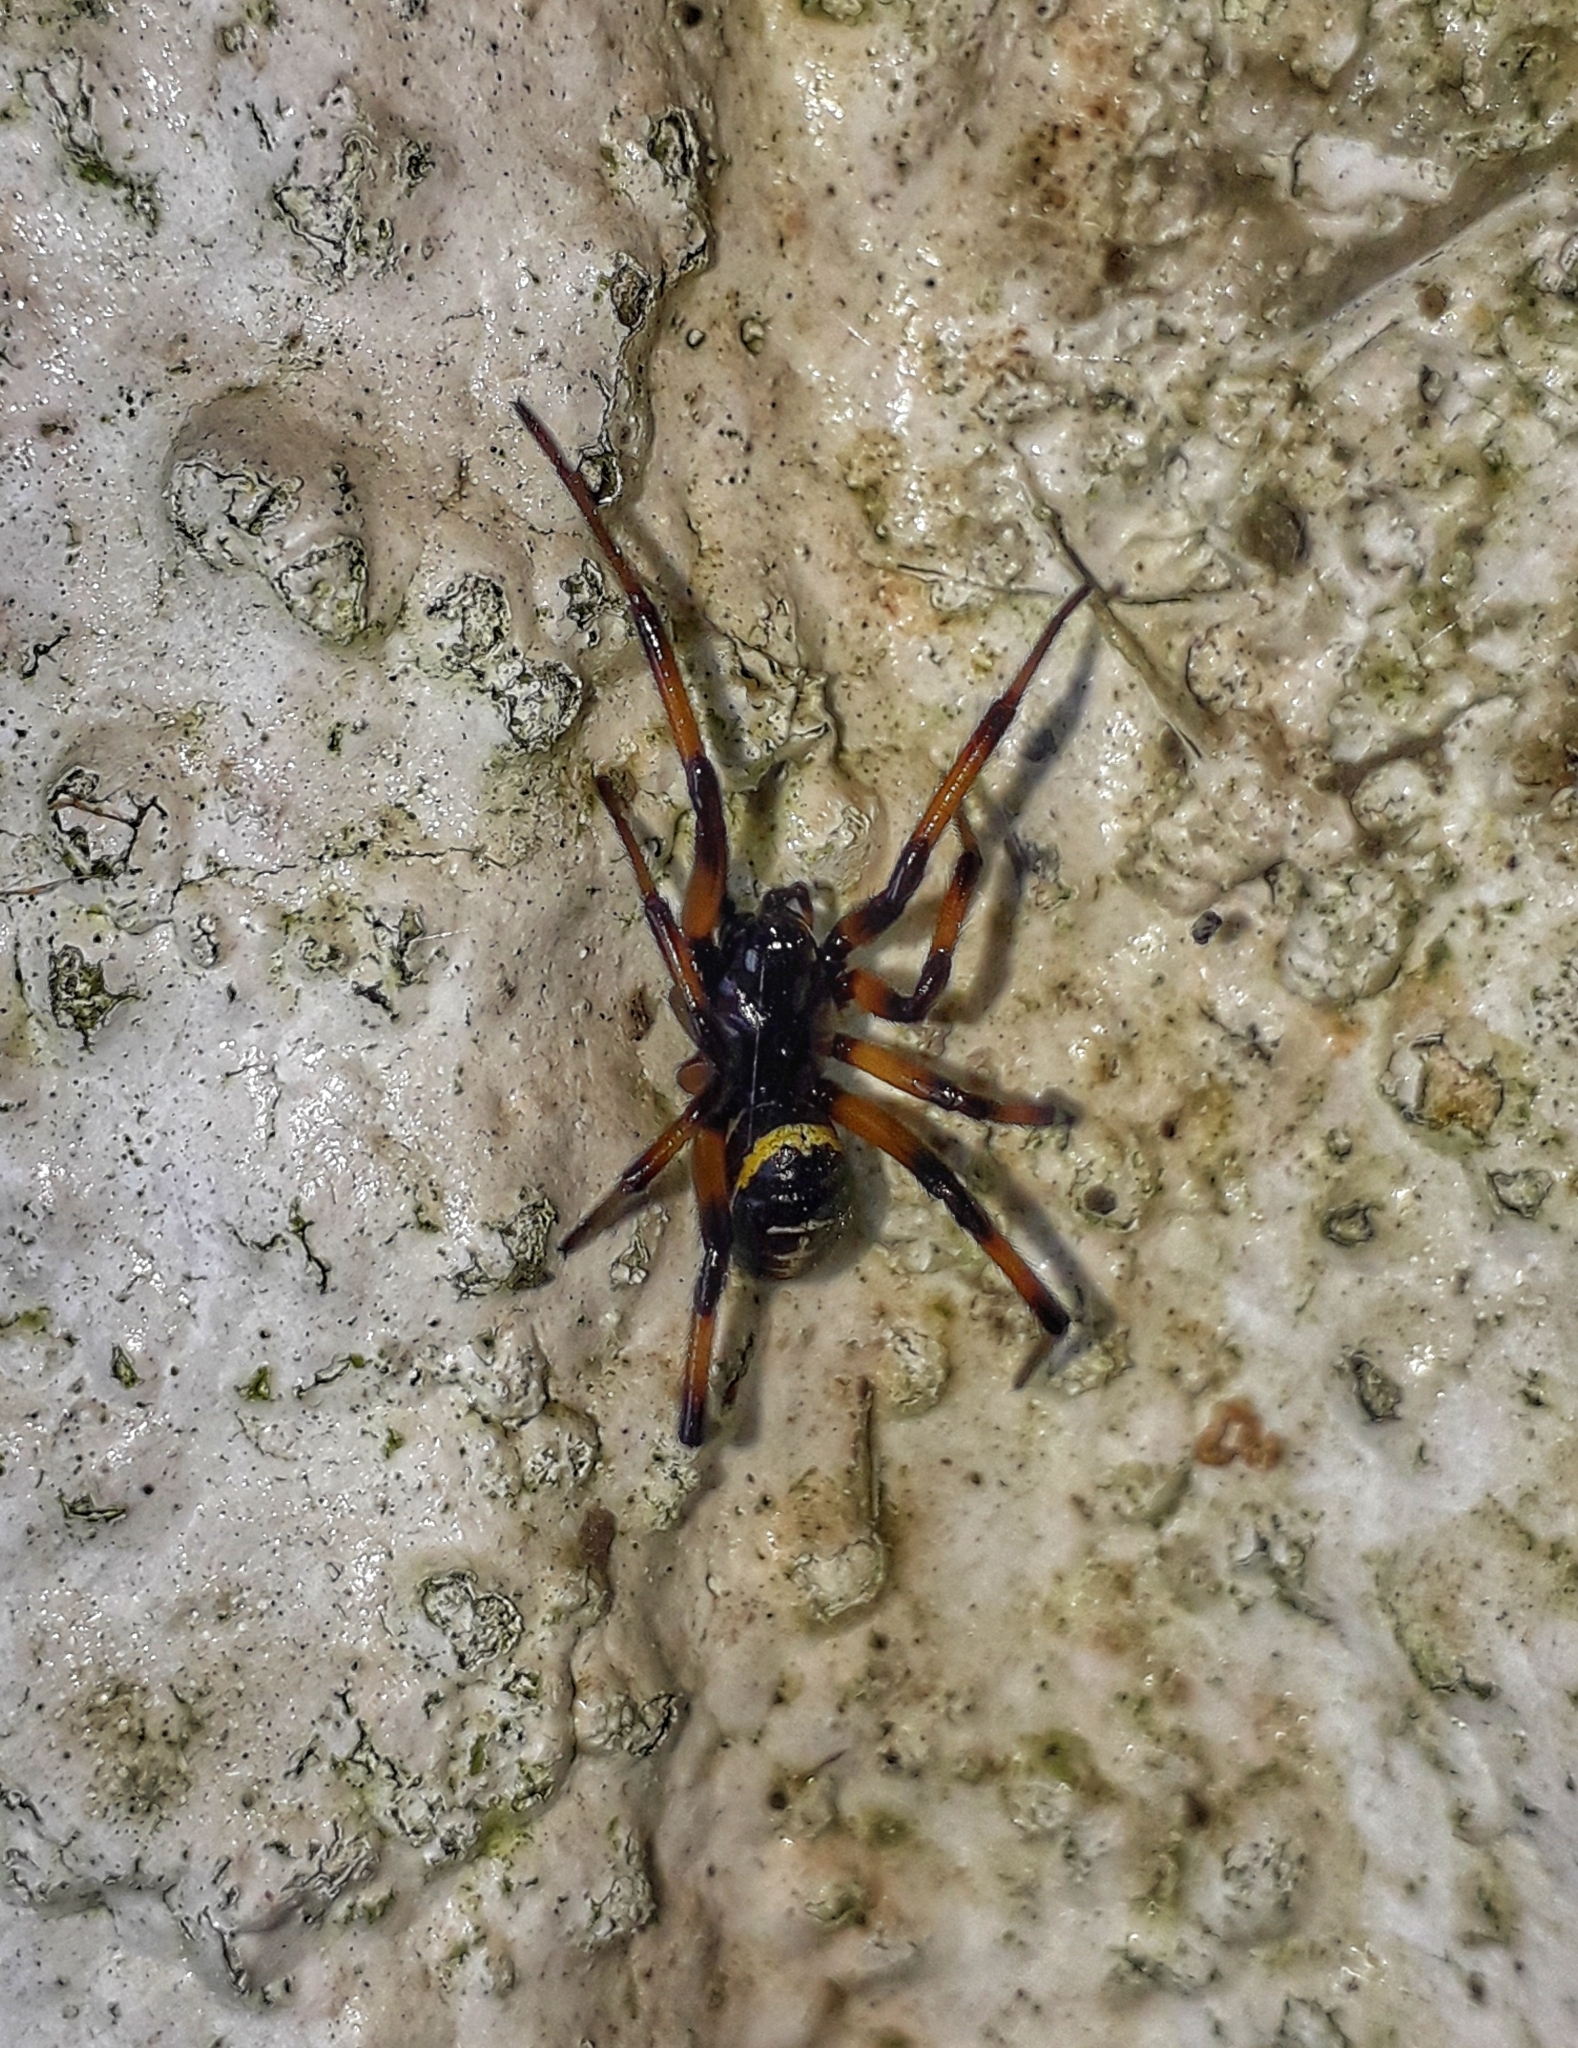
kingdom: Animalia
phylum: Arthropoda
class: Arachnida
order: Araneae
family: Theridiidae
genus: Steatoda
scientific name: Steatoda paykulliana
